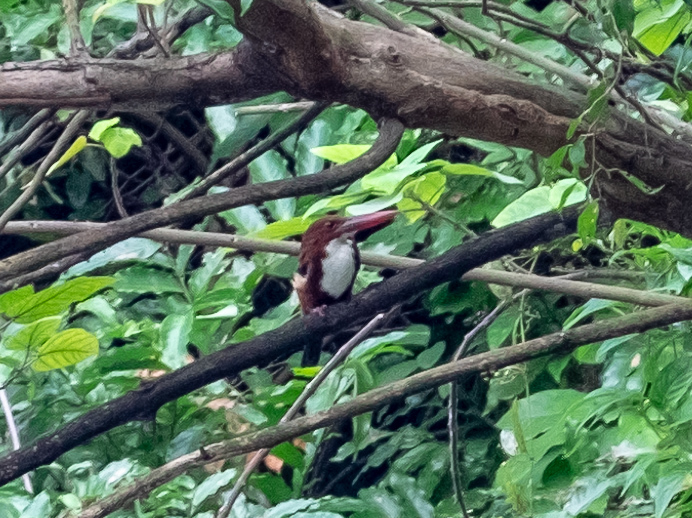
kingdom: Animalia
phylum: Chordata
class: Aves
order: Coraciiformes
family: Alcedinidae
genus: Halcyon
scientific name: Halcyon smyrnensis
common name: White-throated kingfisher
